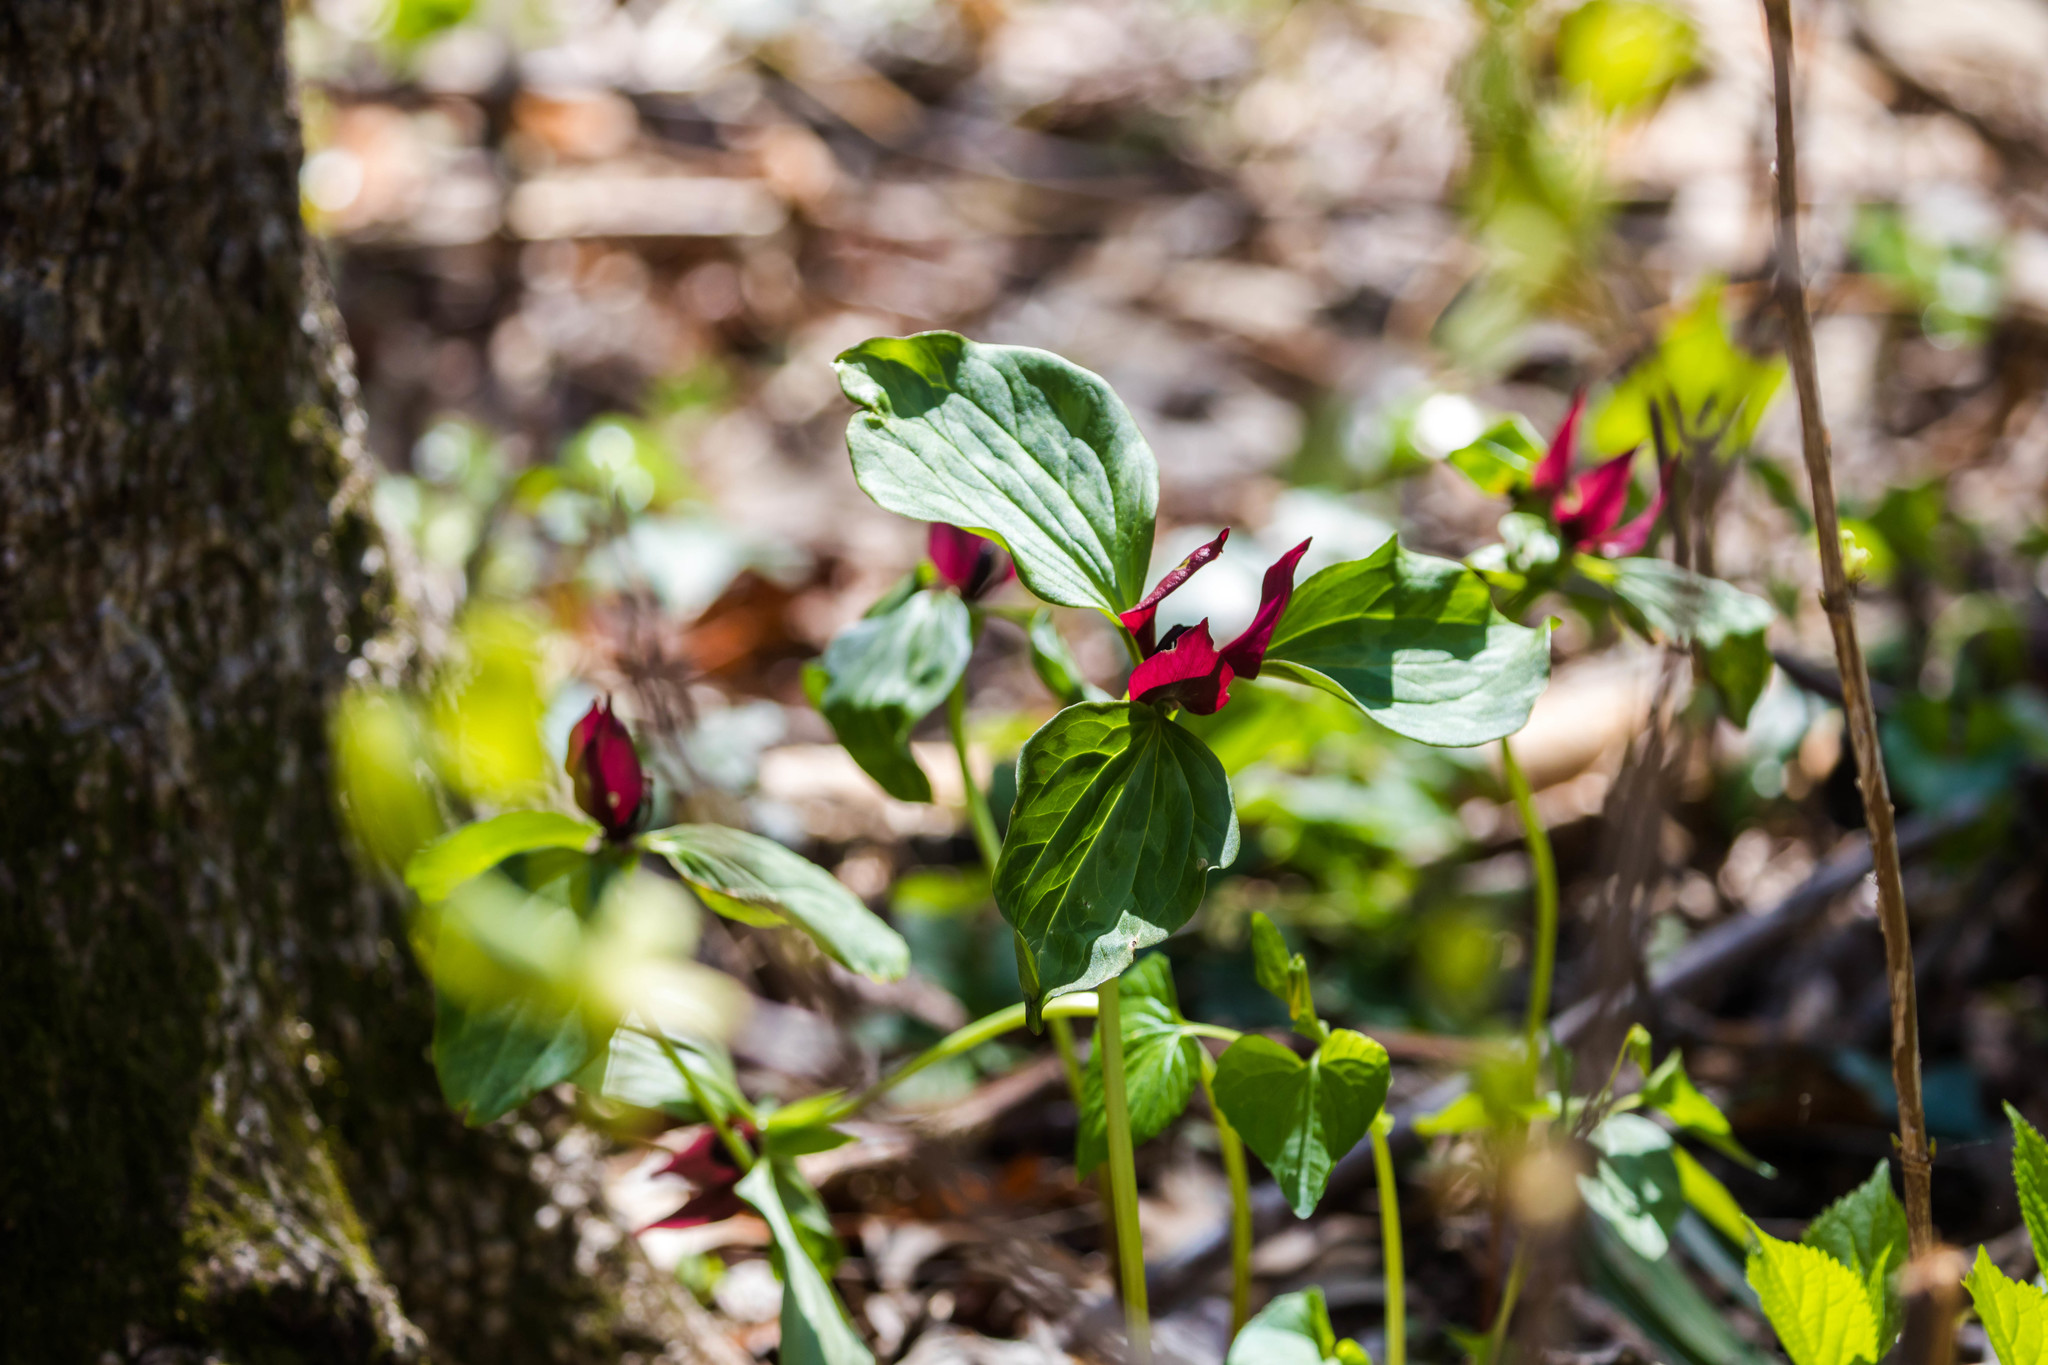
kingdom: Plantae
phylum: Tracheophyta
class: Liliopsida
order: Liliales
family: Melanthiaceae
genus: Trillium
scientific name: Trillium recurvatum
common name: Bloody butcher
